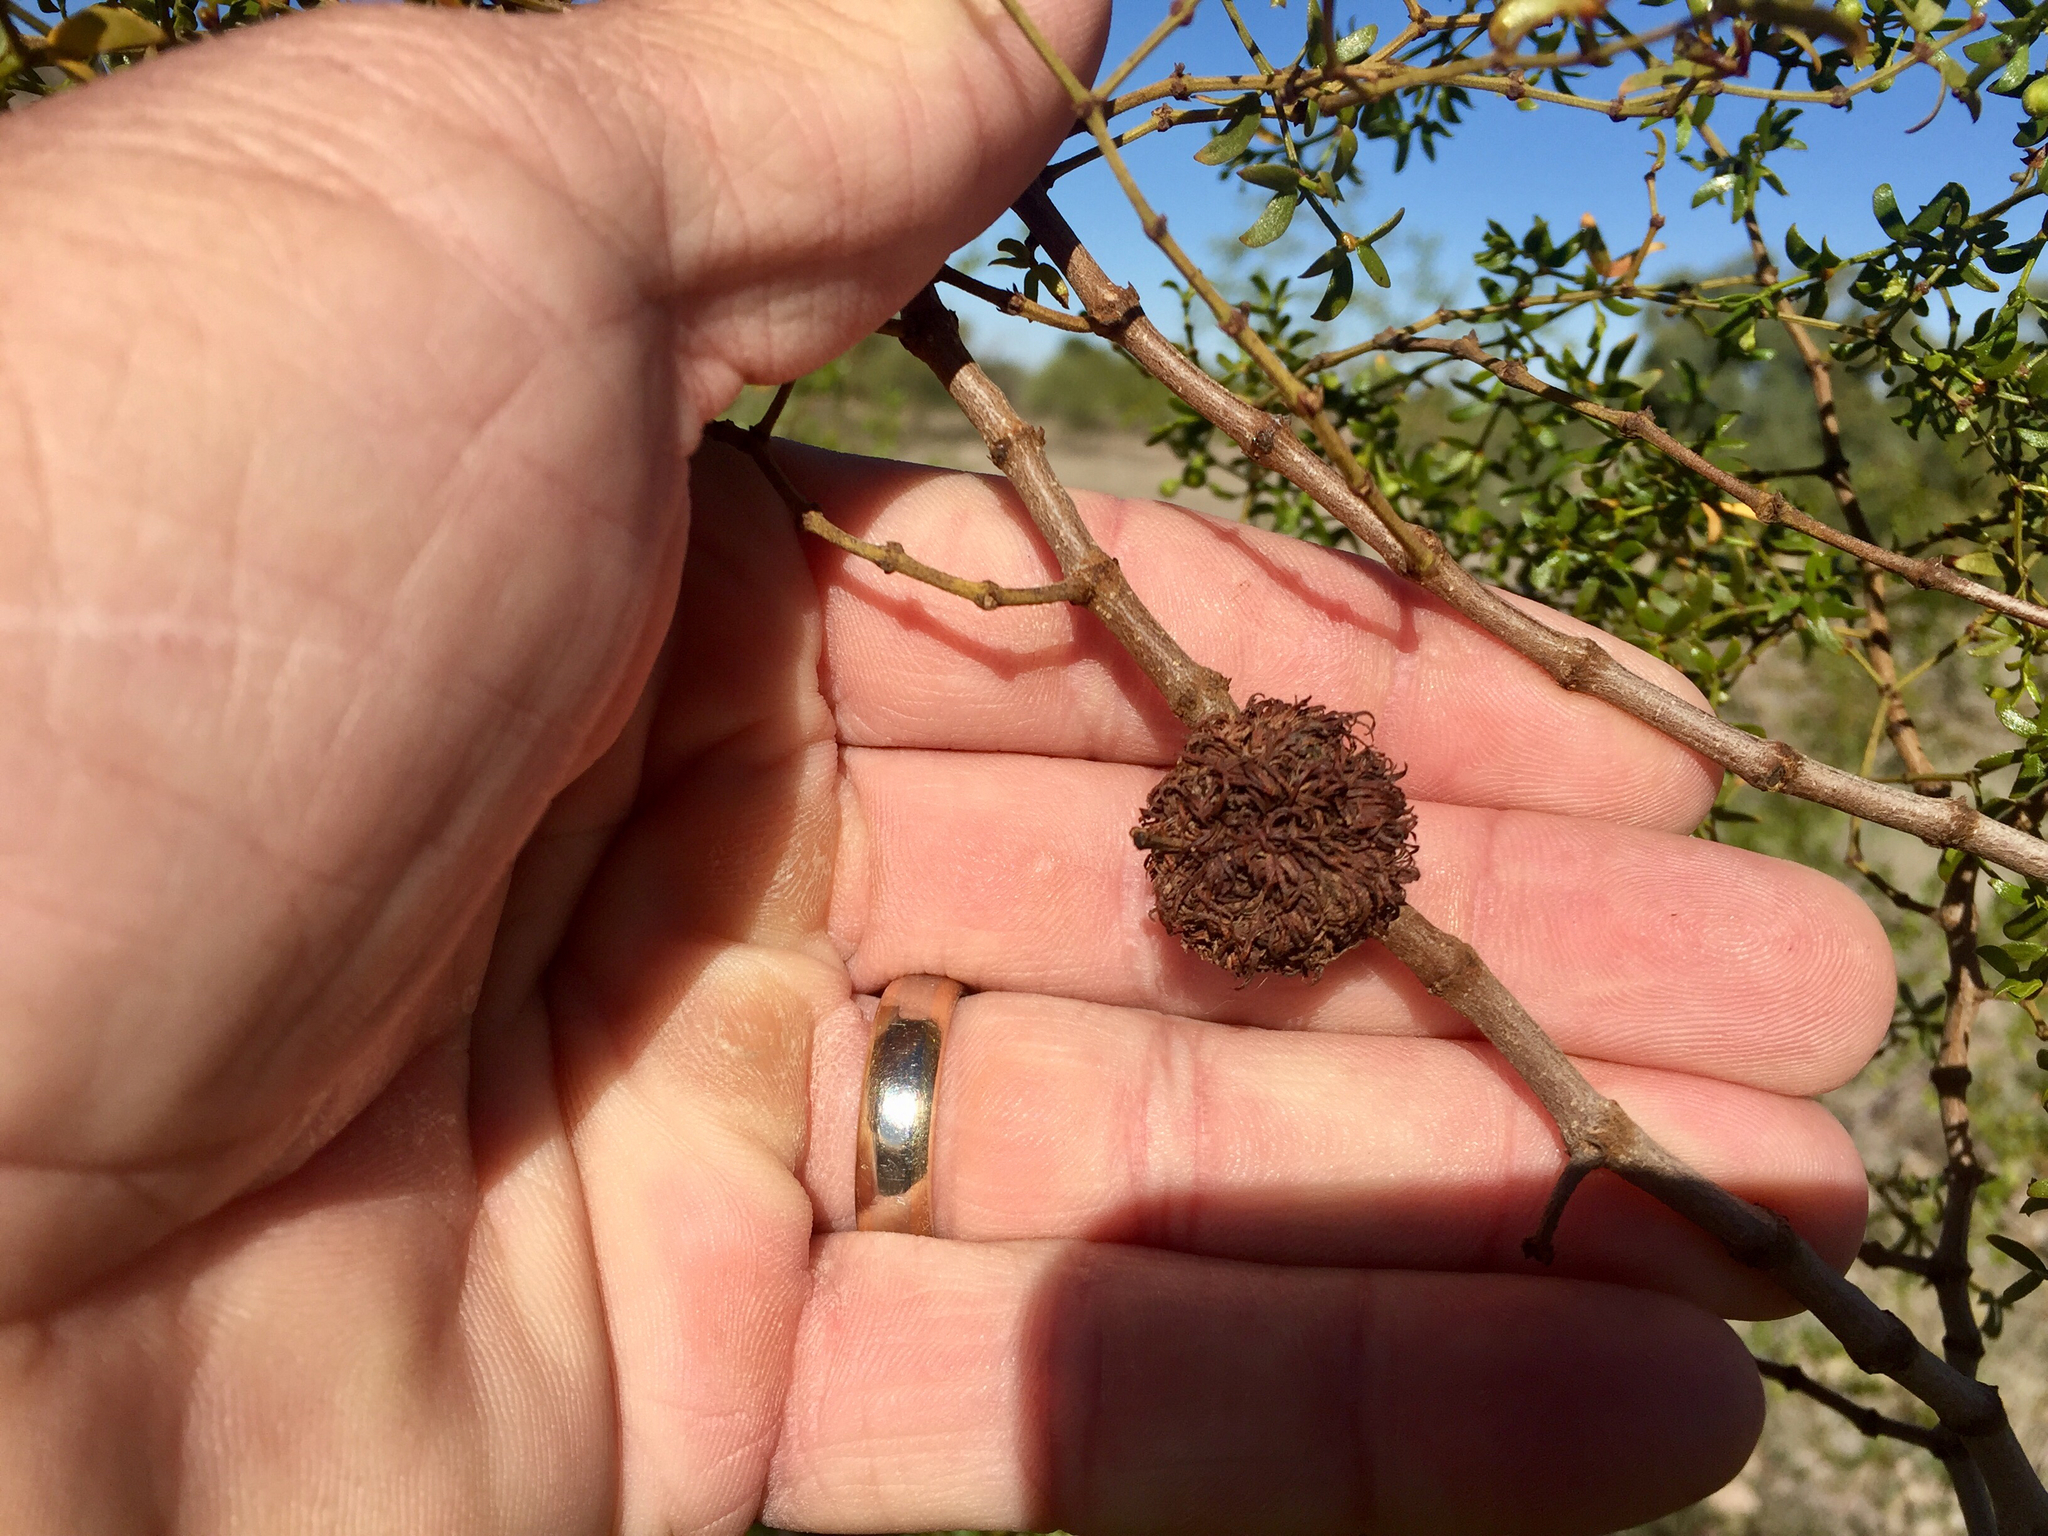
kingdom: Animalia
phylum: Arthropoda
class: Insecta
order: Diptera
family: Cecidomyiidae
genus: Asphondylia
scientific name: Asphondylia auripila
